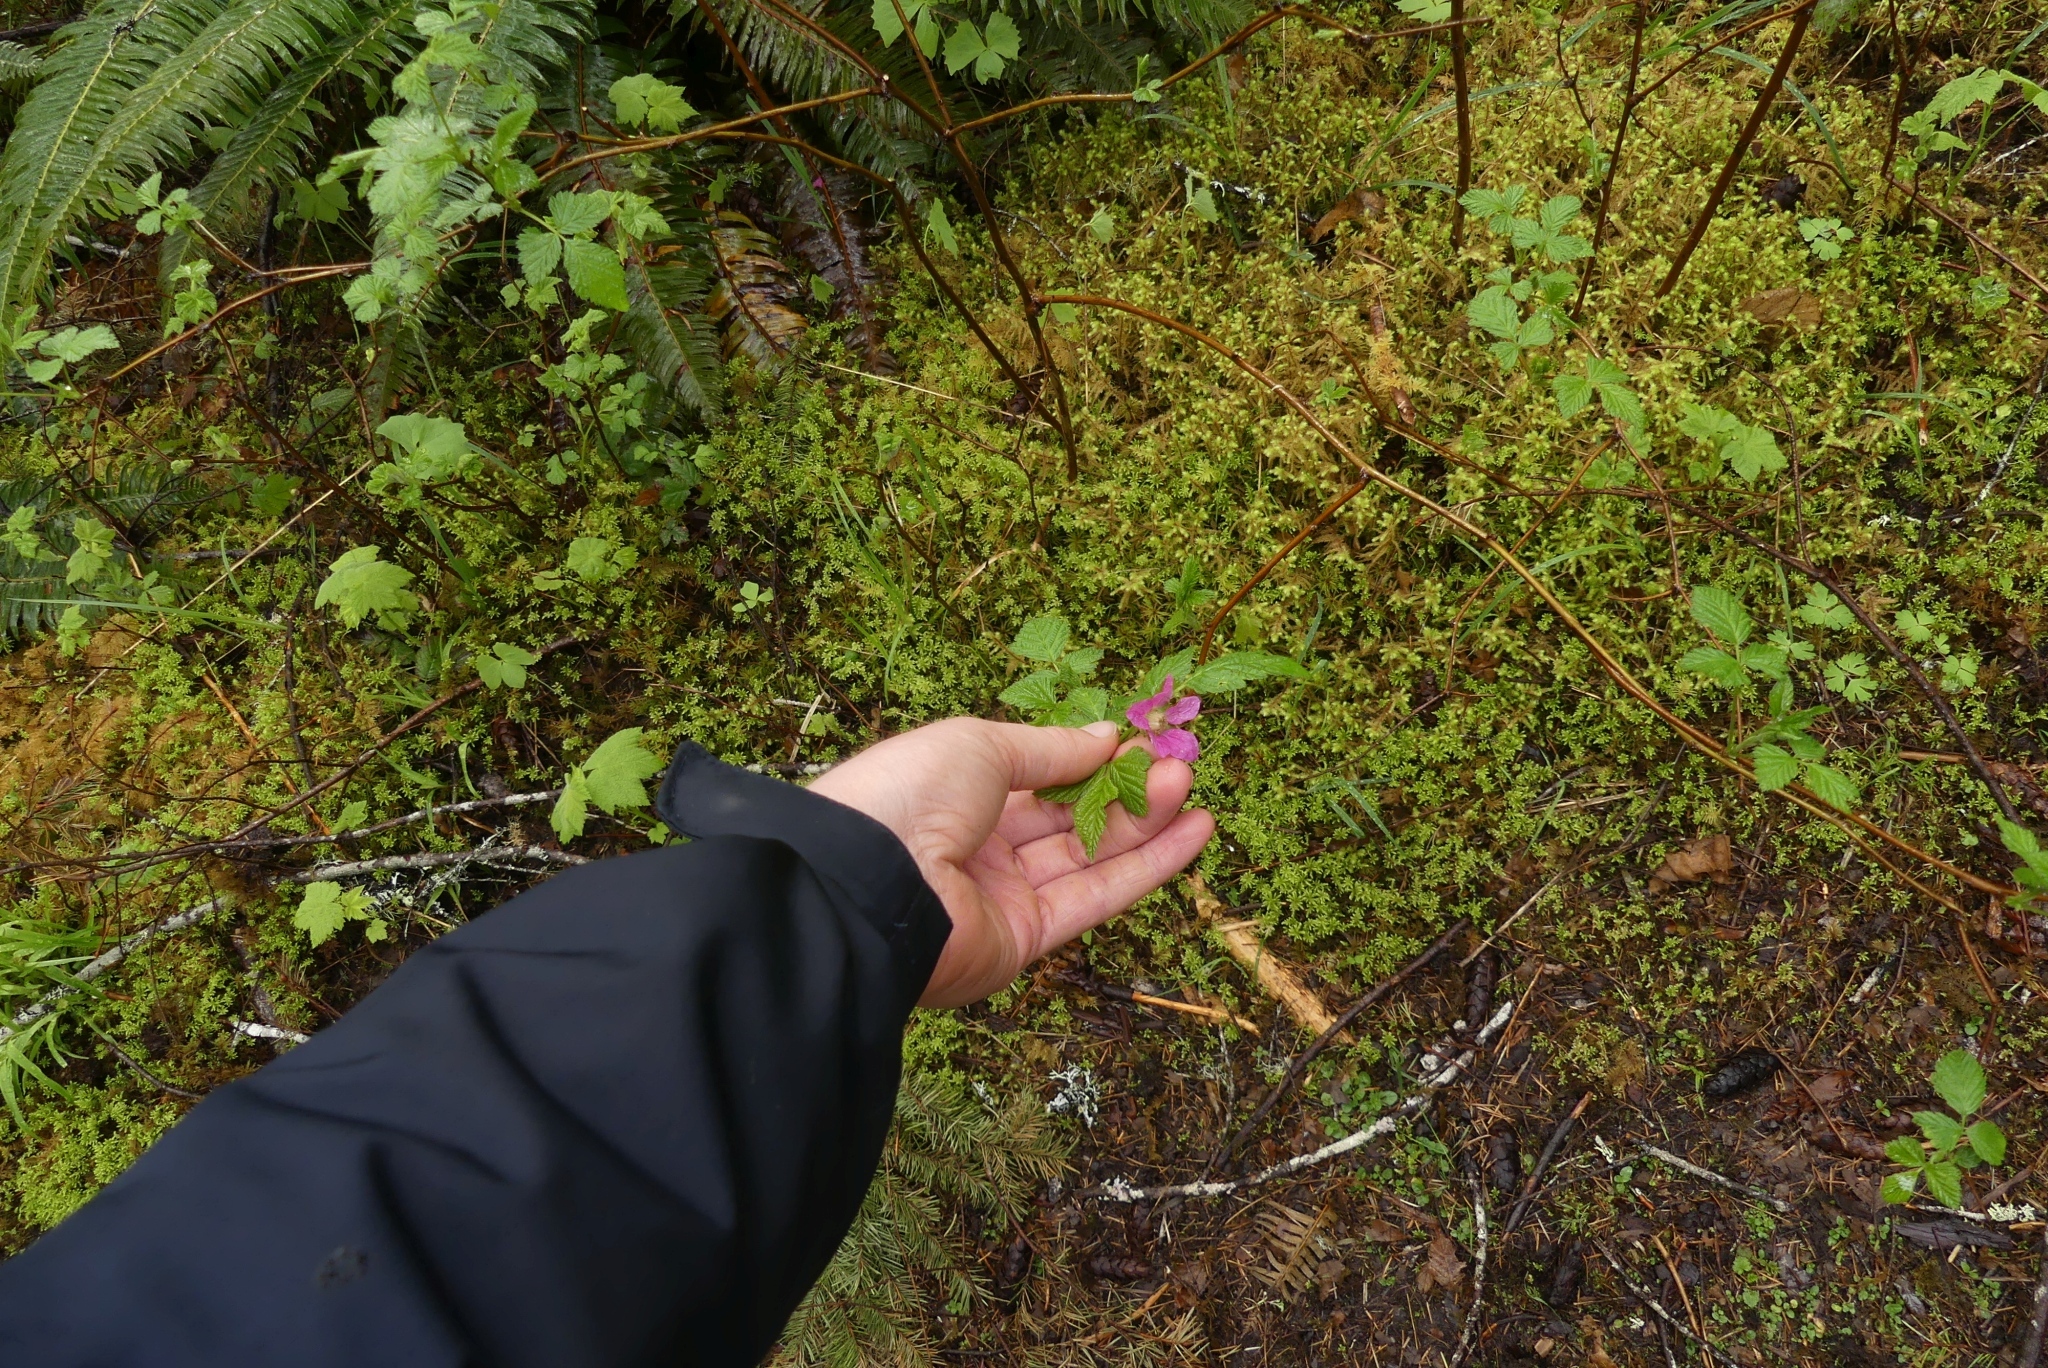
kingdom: Plantae
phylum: Tracheophyta
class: Magnoliopsida
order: Rosales
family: Rosaceae
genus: Rubus
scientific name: Rubus spectabilis
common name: Salmonberry
